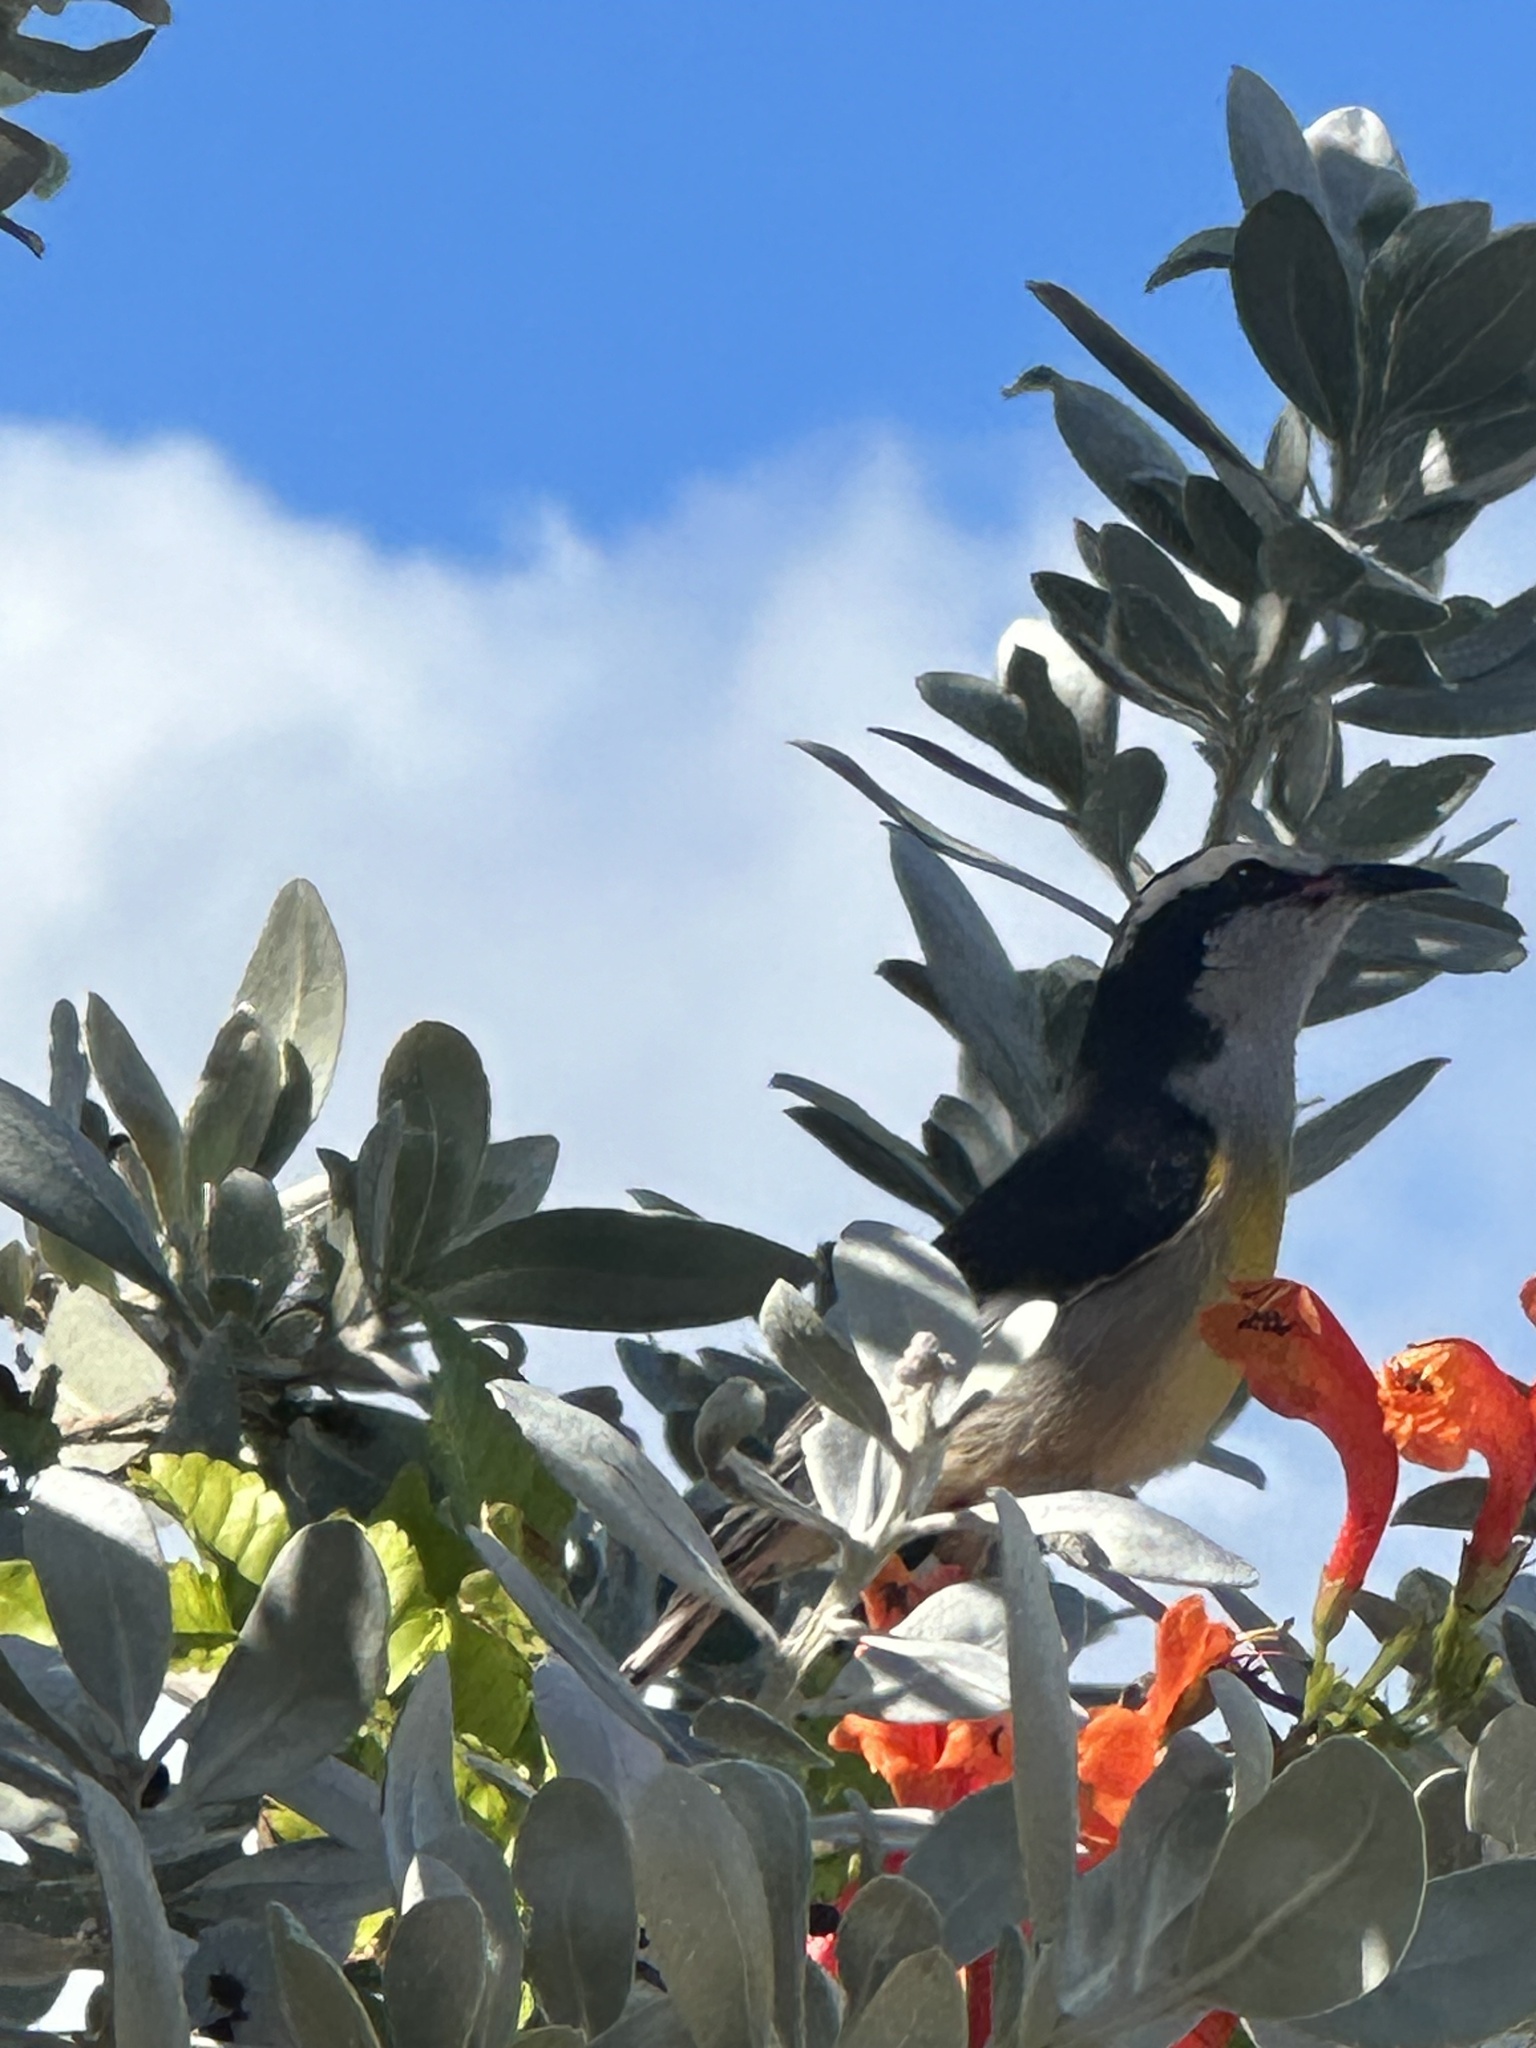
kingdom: Animalia
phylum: Chordata
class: Aves
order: Passeriformes
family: Thraupidae
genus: Coereba
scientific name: Coereba flaveola
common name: Bananaquit
